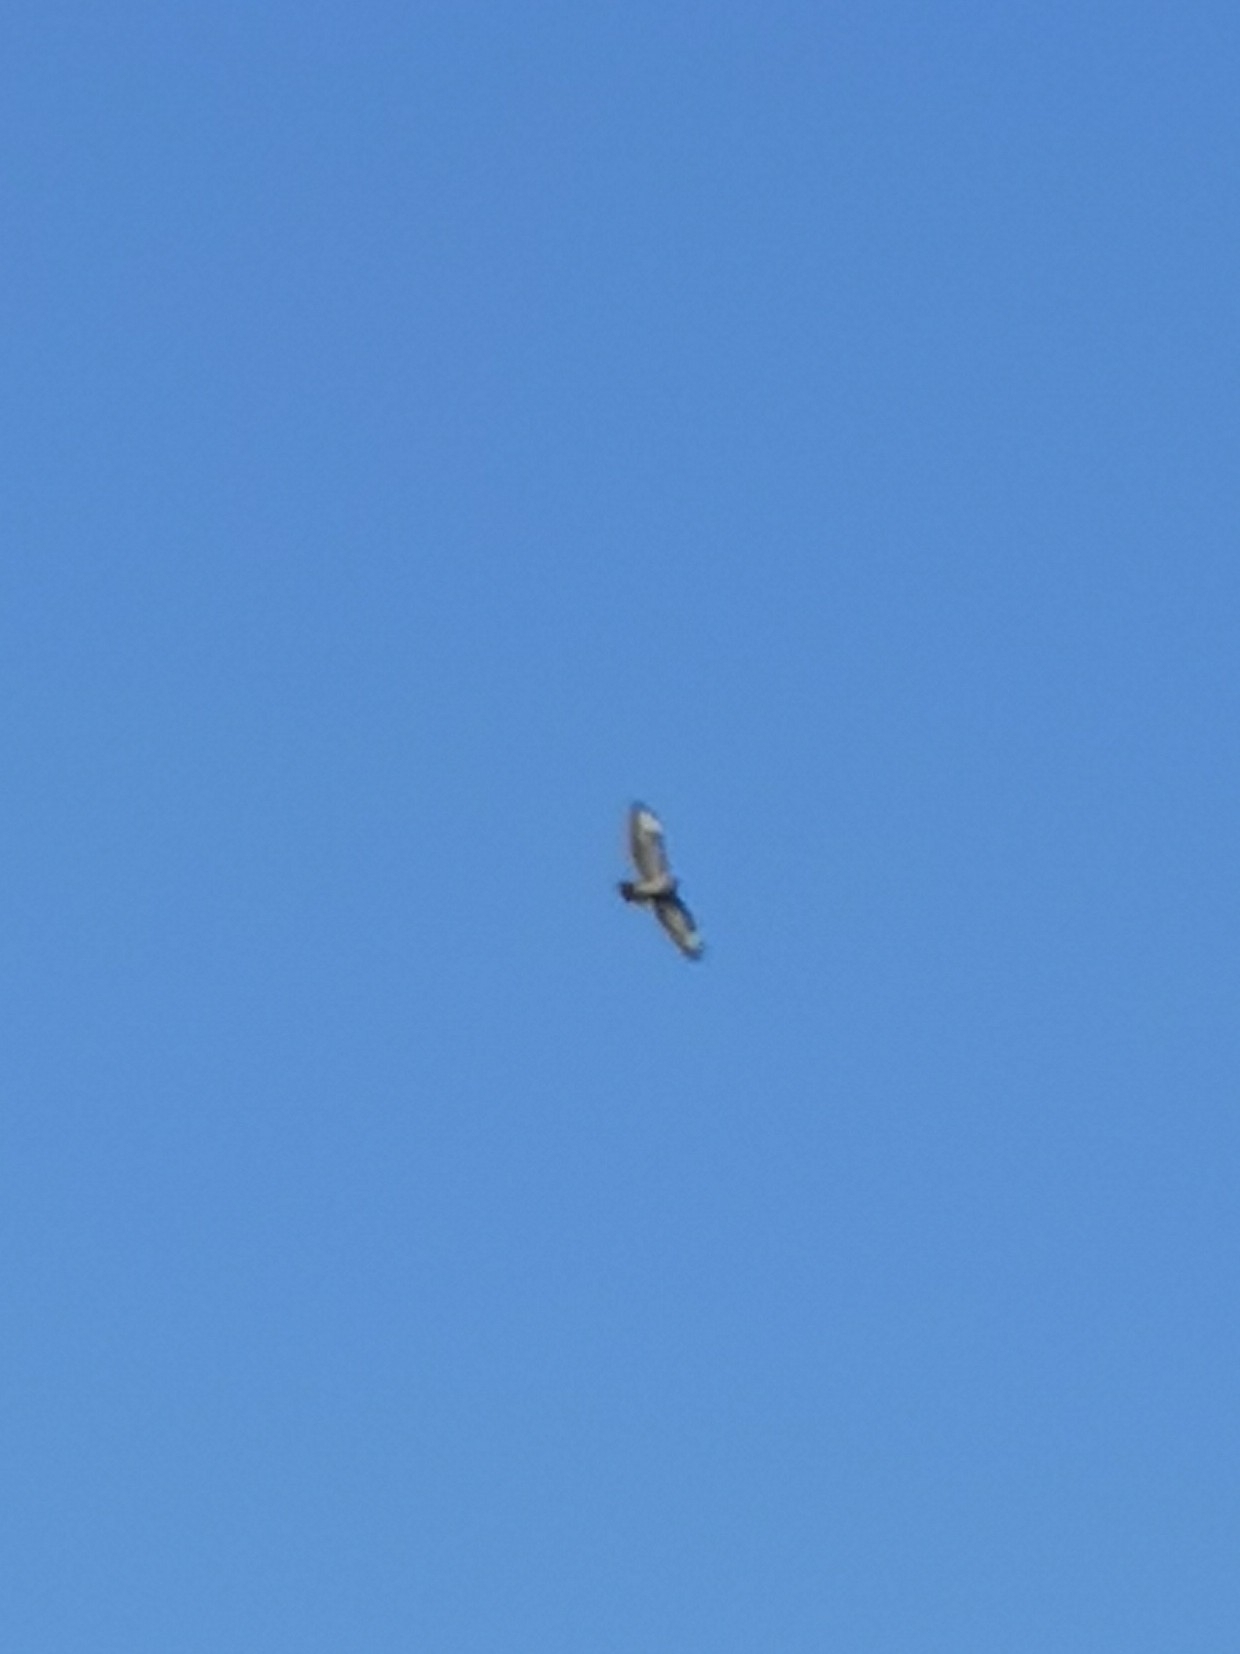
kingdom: Animalia
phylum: Chordata
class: Aves
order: Accipitriformes
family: Accipitridae
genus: Buteo
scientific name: Buteo buteo
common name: Common buzzard
